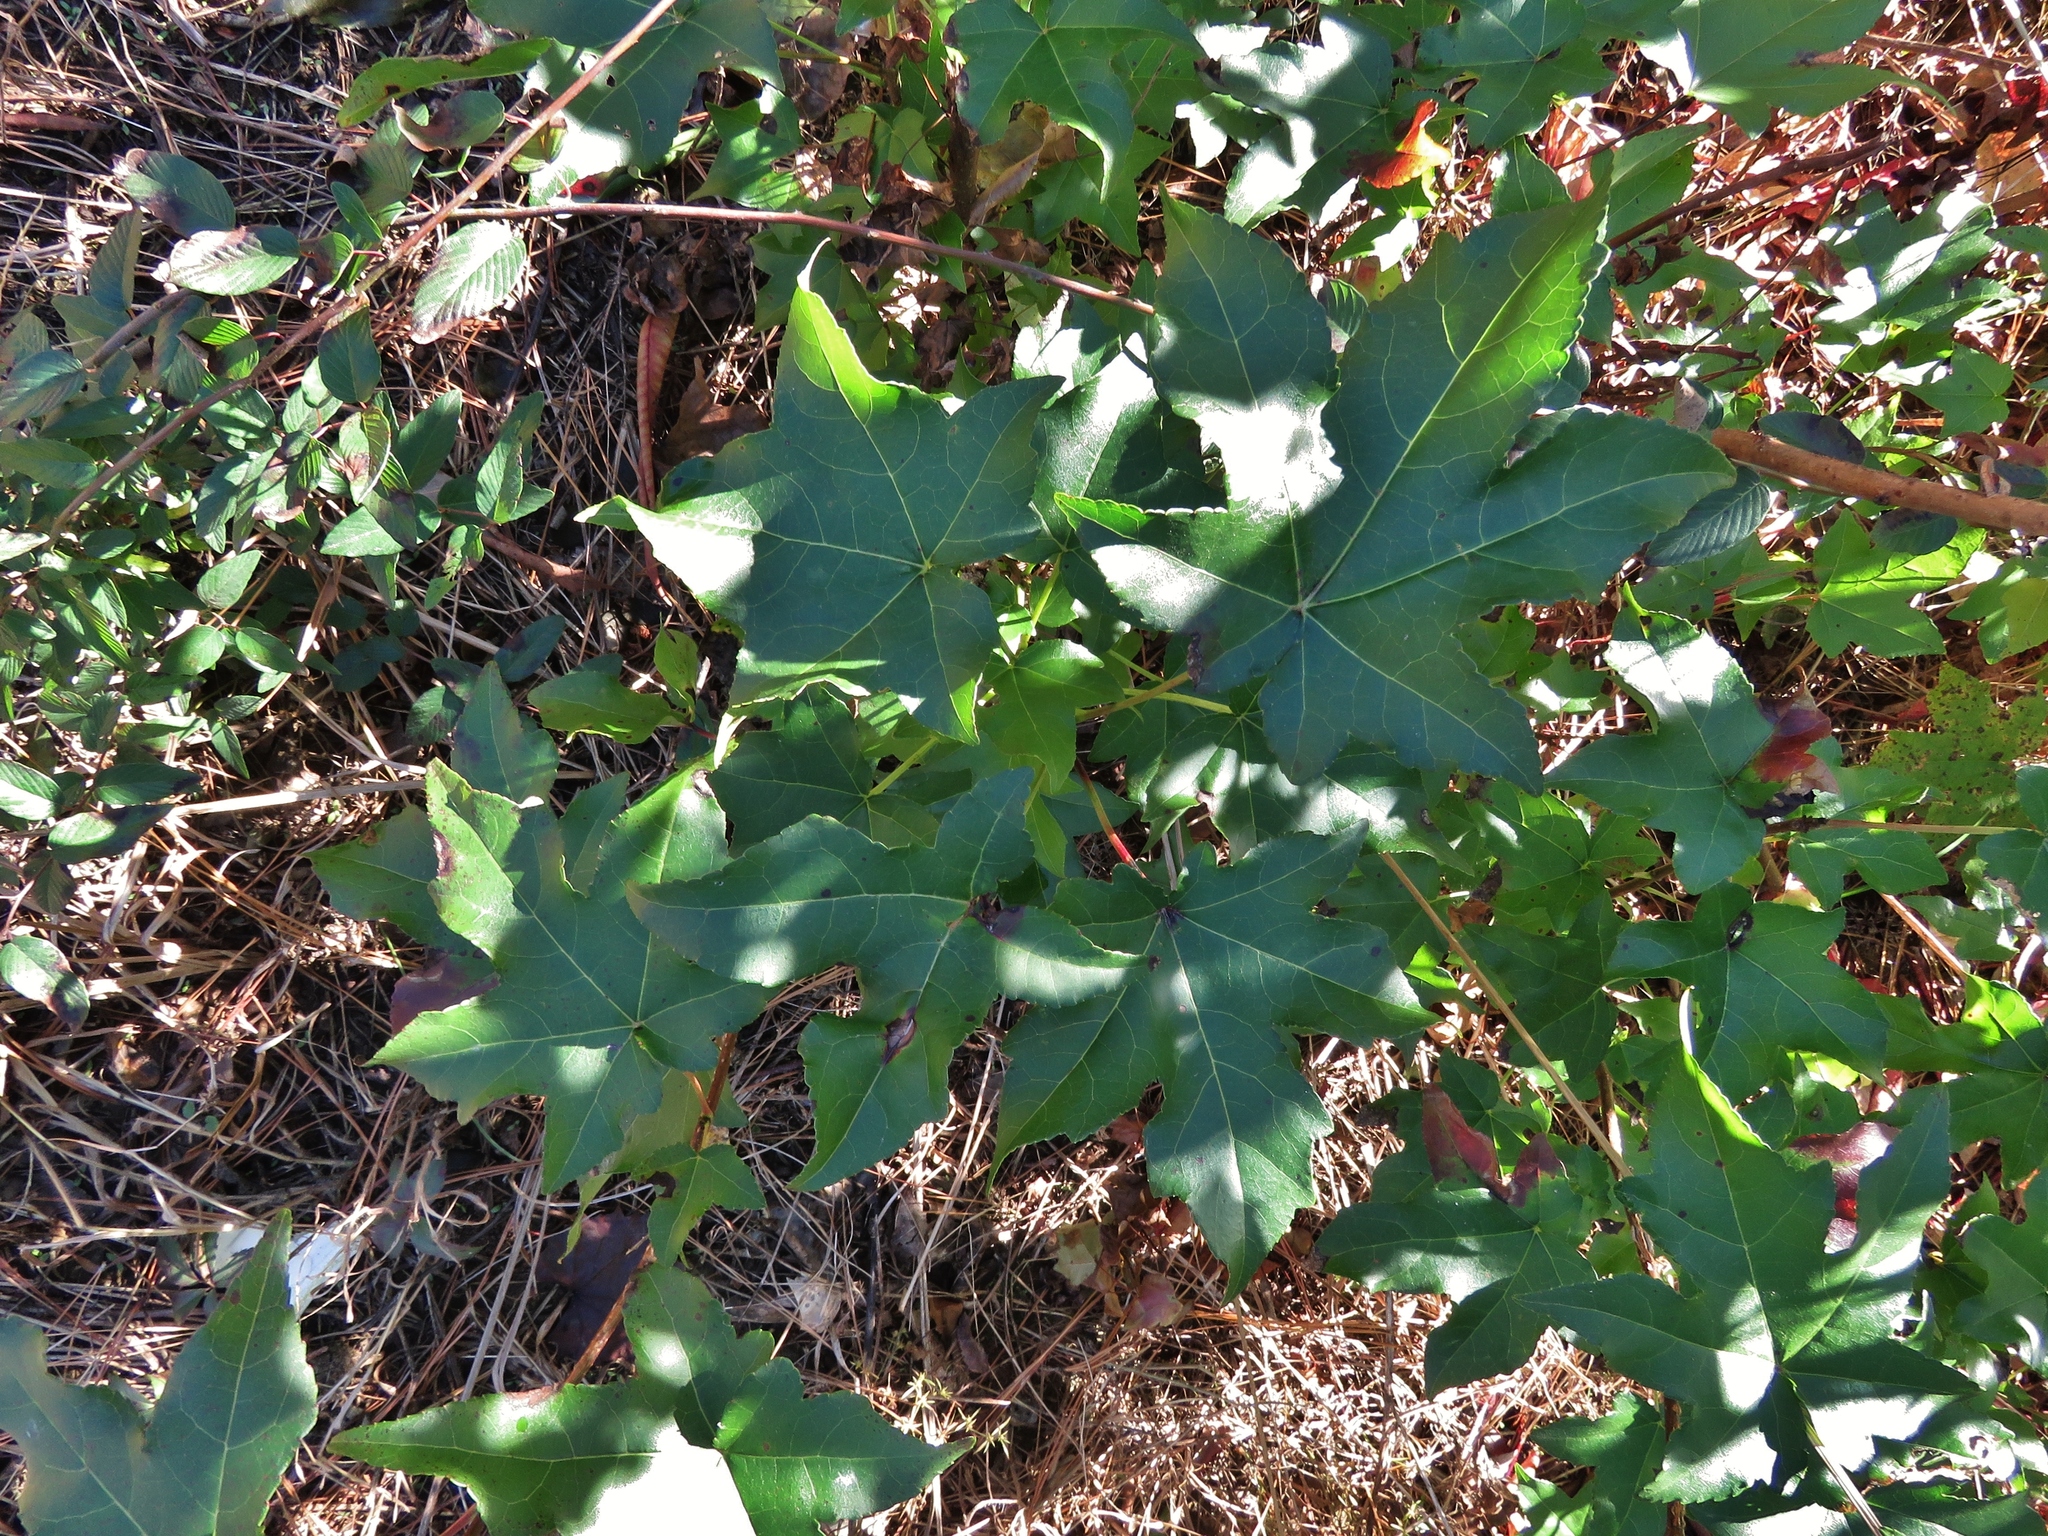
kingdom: Plantae
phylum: Tracheophyta
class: Magnoliopsida
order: Saxifragales
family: Altingiaceae
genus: Liquidambar
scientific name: Liquidambar styraciflua
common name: Sweet gum
